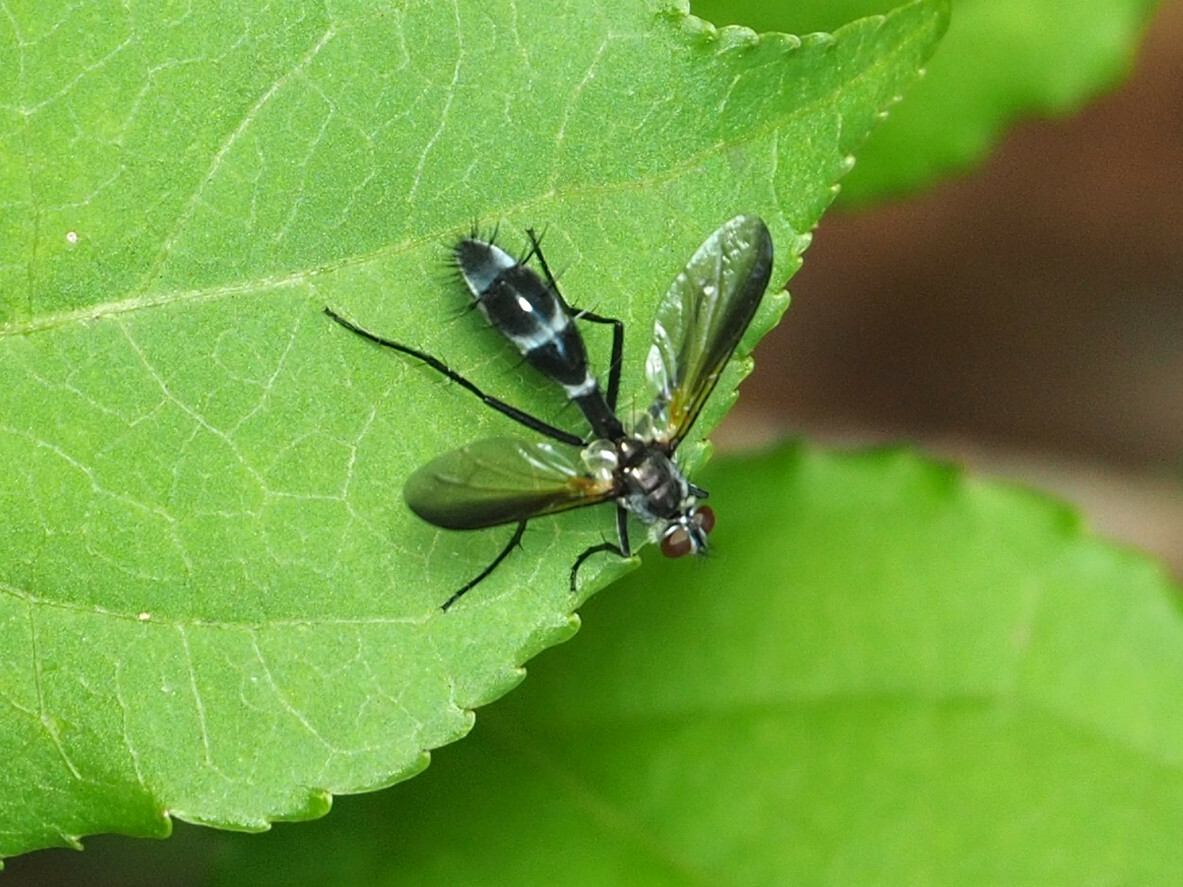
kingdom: Animalia
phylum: Arthropoda
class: Insecta
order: Diptera
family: Tachinidae
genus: Cordyligaster
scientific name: Cordyligaster septentrionalis
